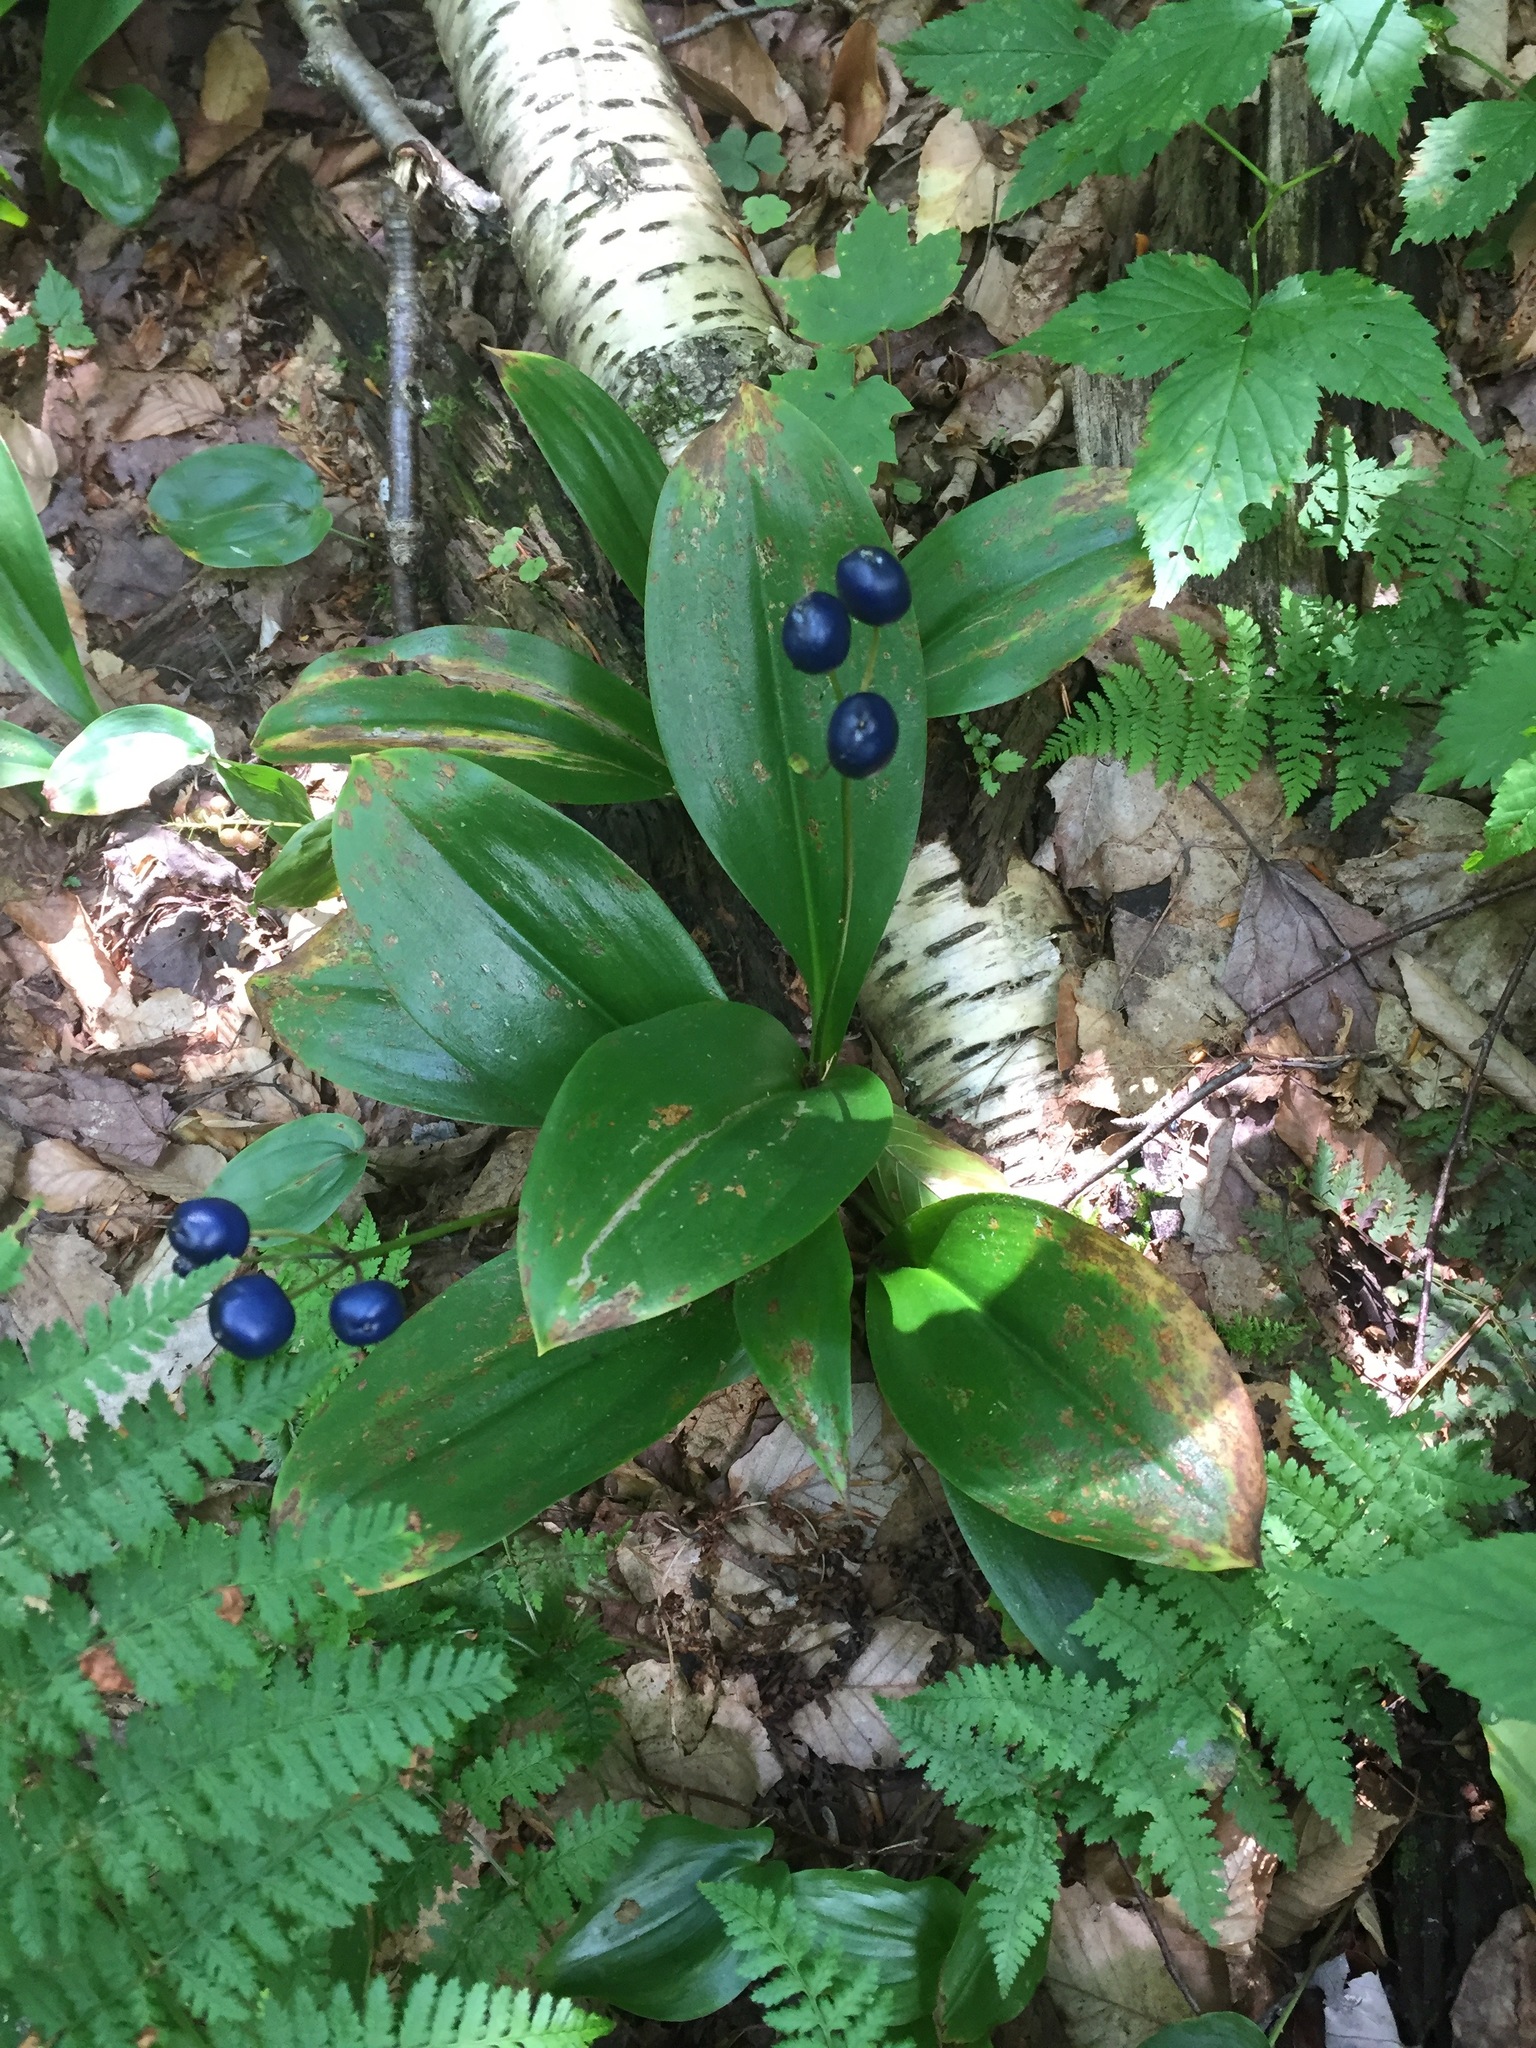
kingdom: Plantae
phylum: Tracheophyta
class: Liliopsida
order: Liliales
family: Liliaceae
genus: Clintonia
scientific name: Clintonia borealis
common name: Yellow clintonia
